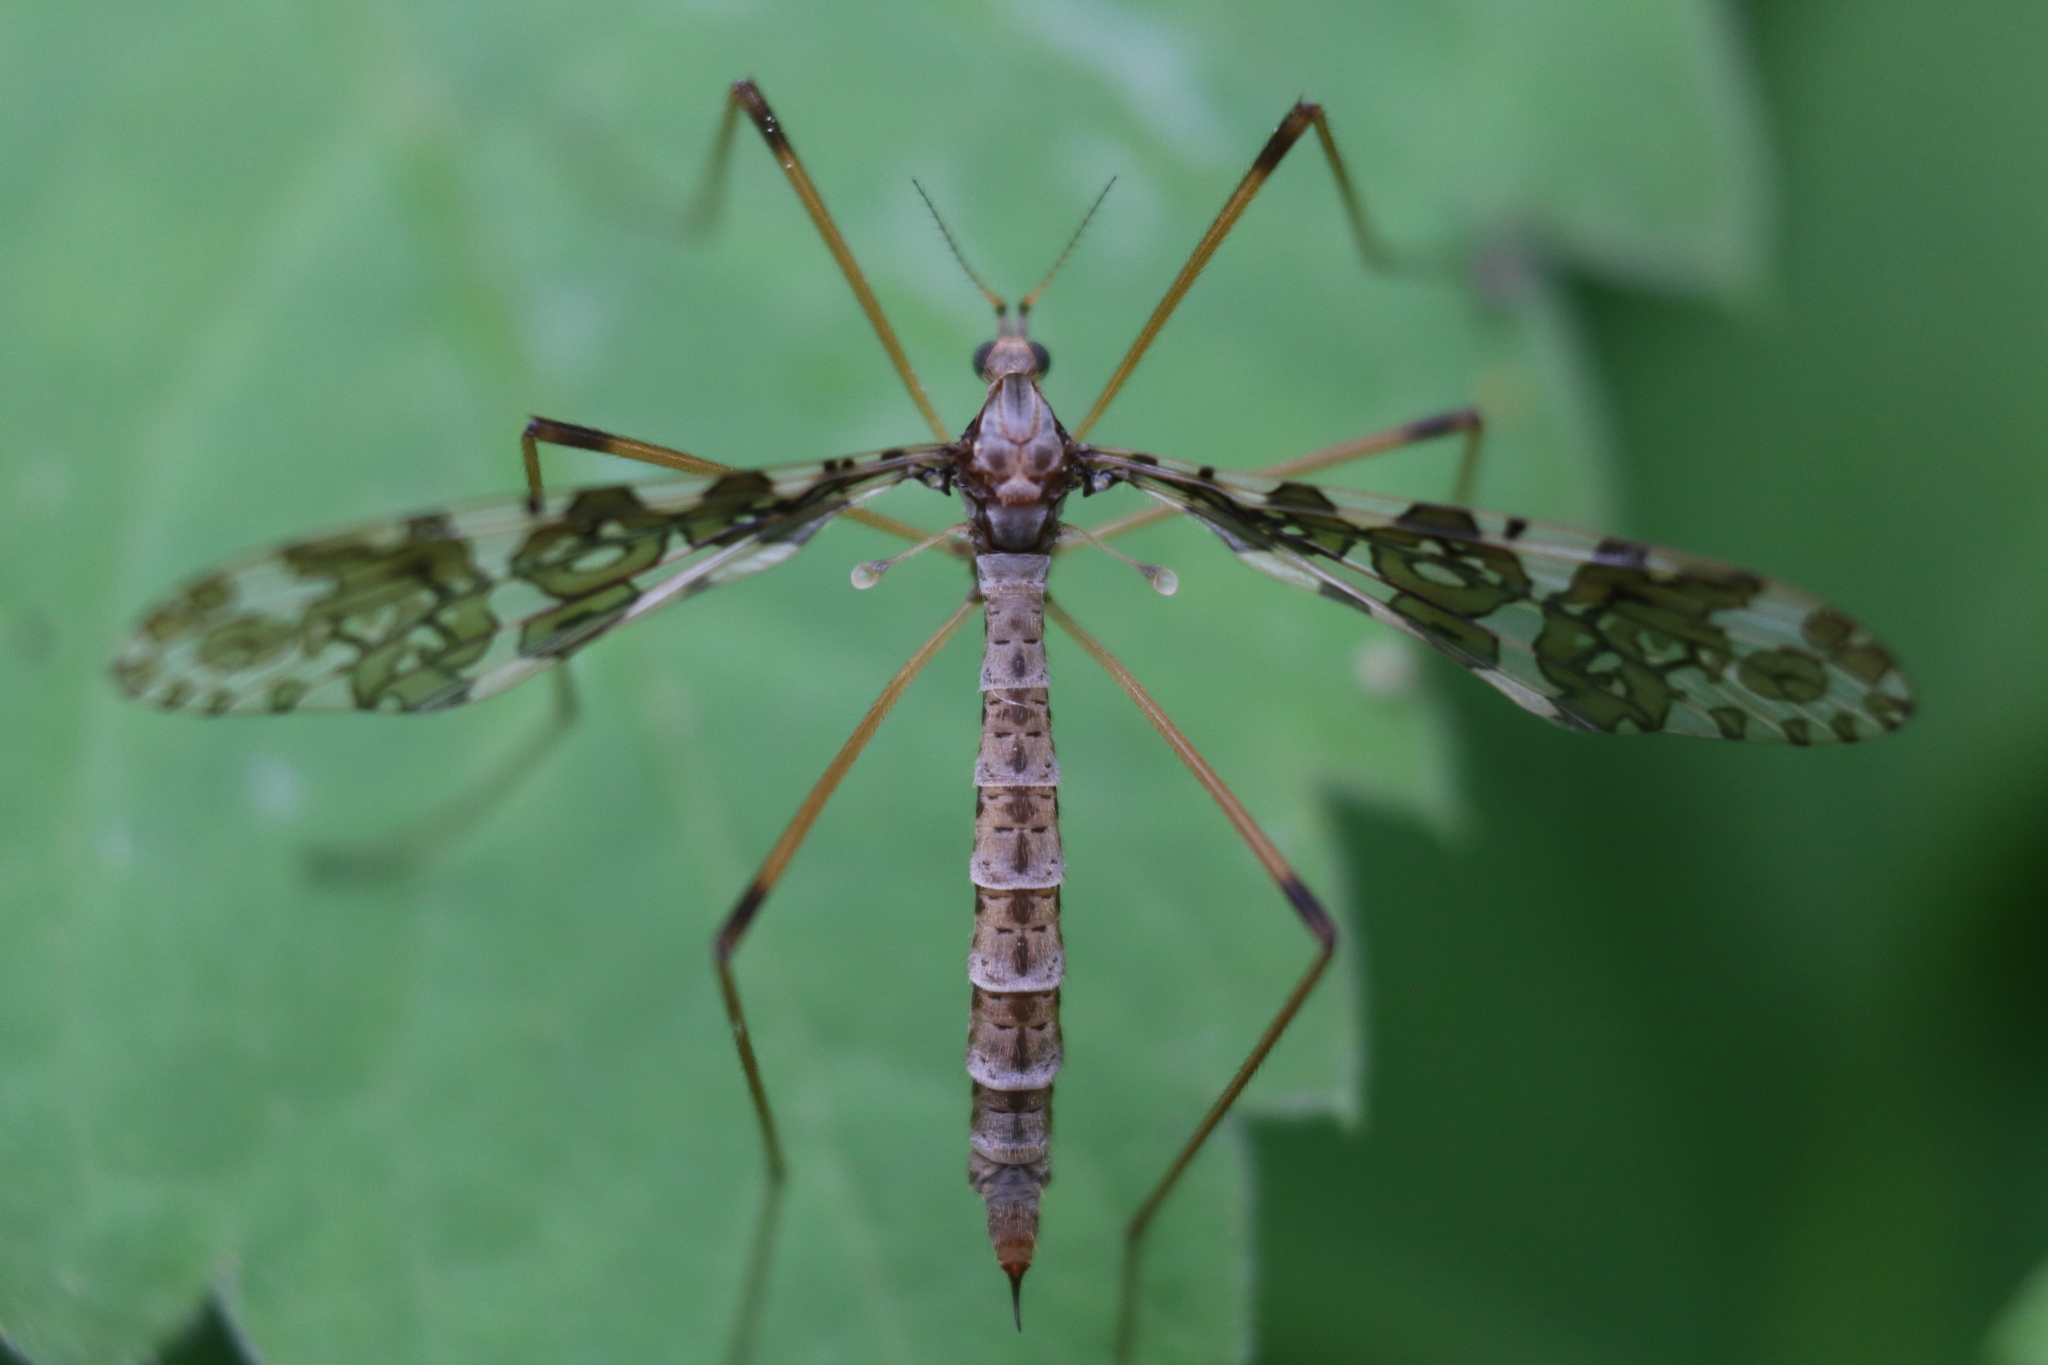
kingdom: Animalia
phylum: Arthropoda
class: Insecta
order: Diptera
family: Limoniidae
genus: Epiphragma
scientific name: Epiphragma fasciapenne
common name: Band-winged crane fly
